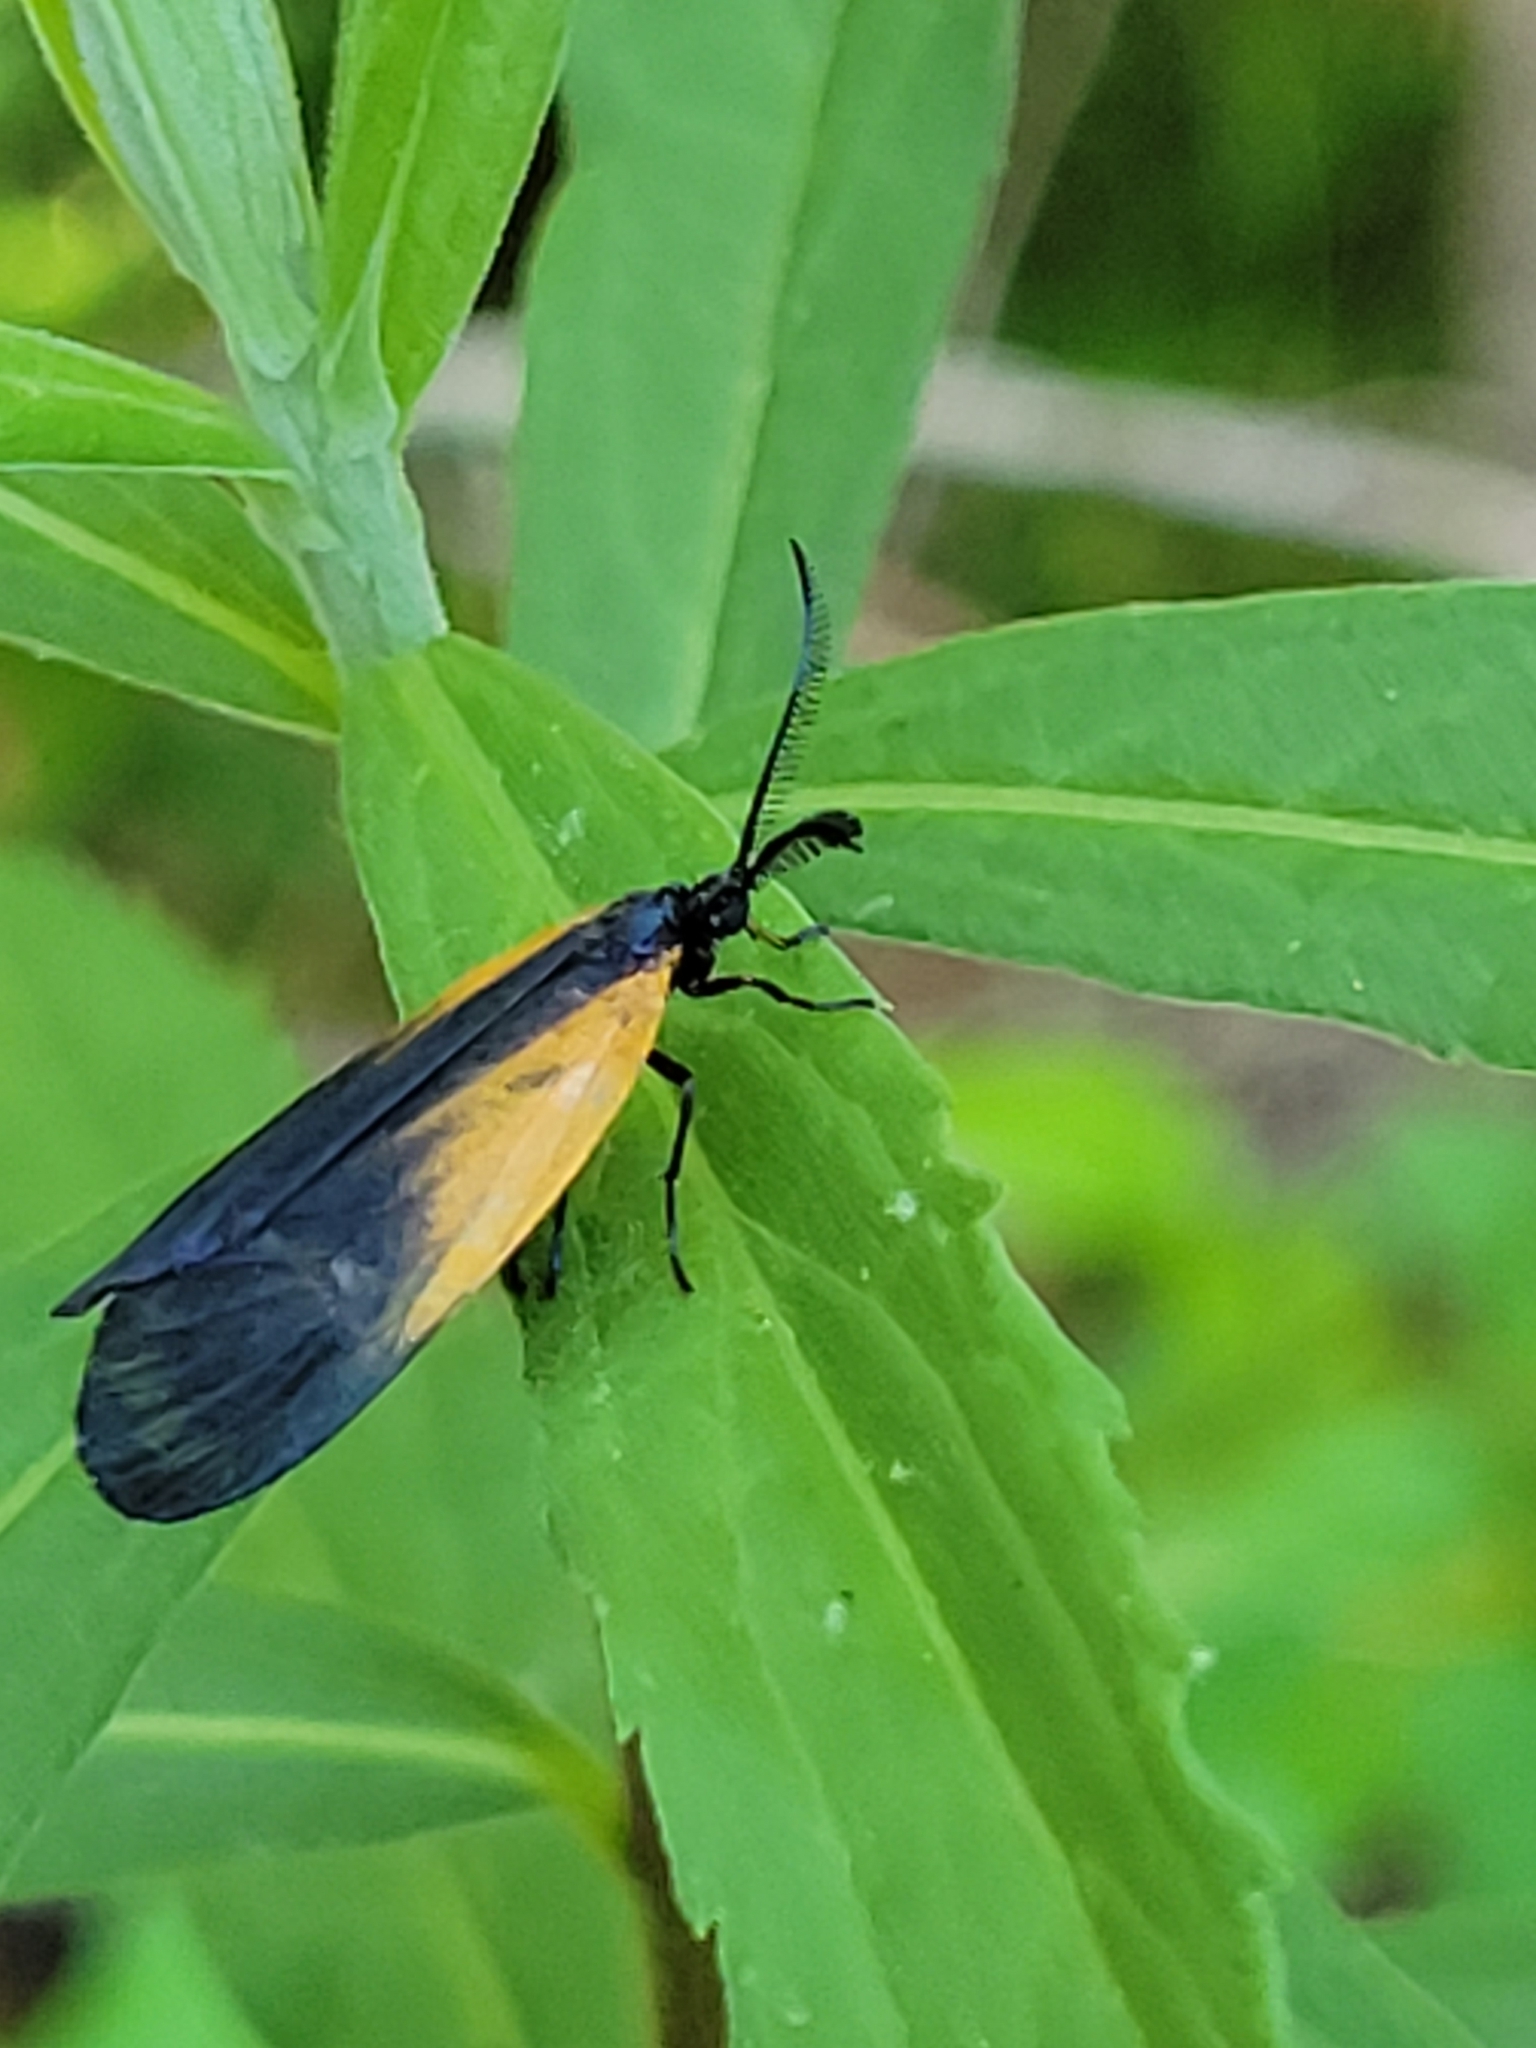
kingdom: Animalia
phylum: Arthropoda
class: Insecta
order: Lepidoptera
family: Zygaenidae
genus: Malthaca
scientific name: Malthaca dimidiata
